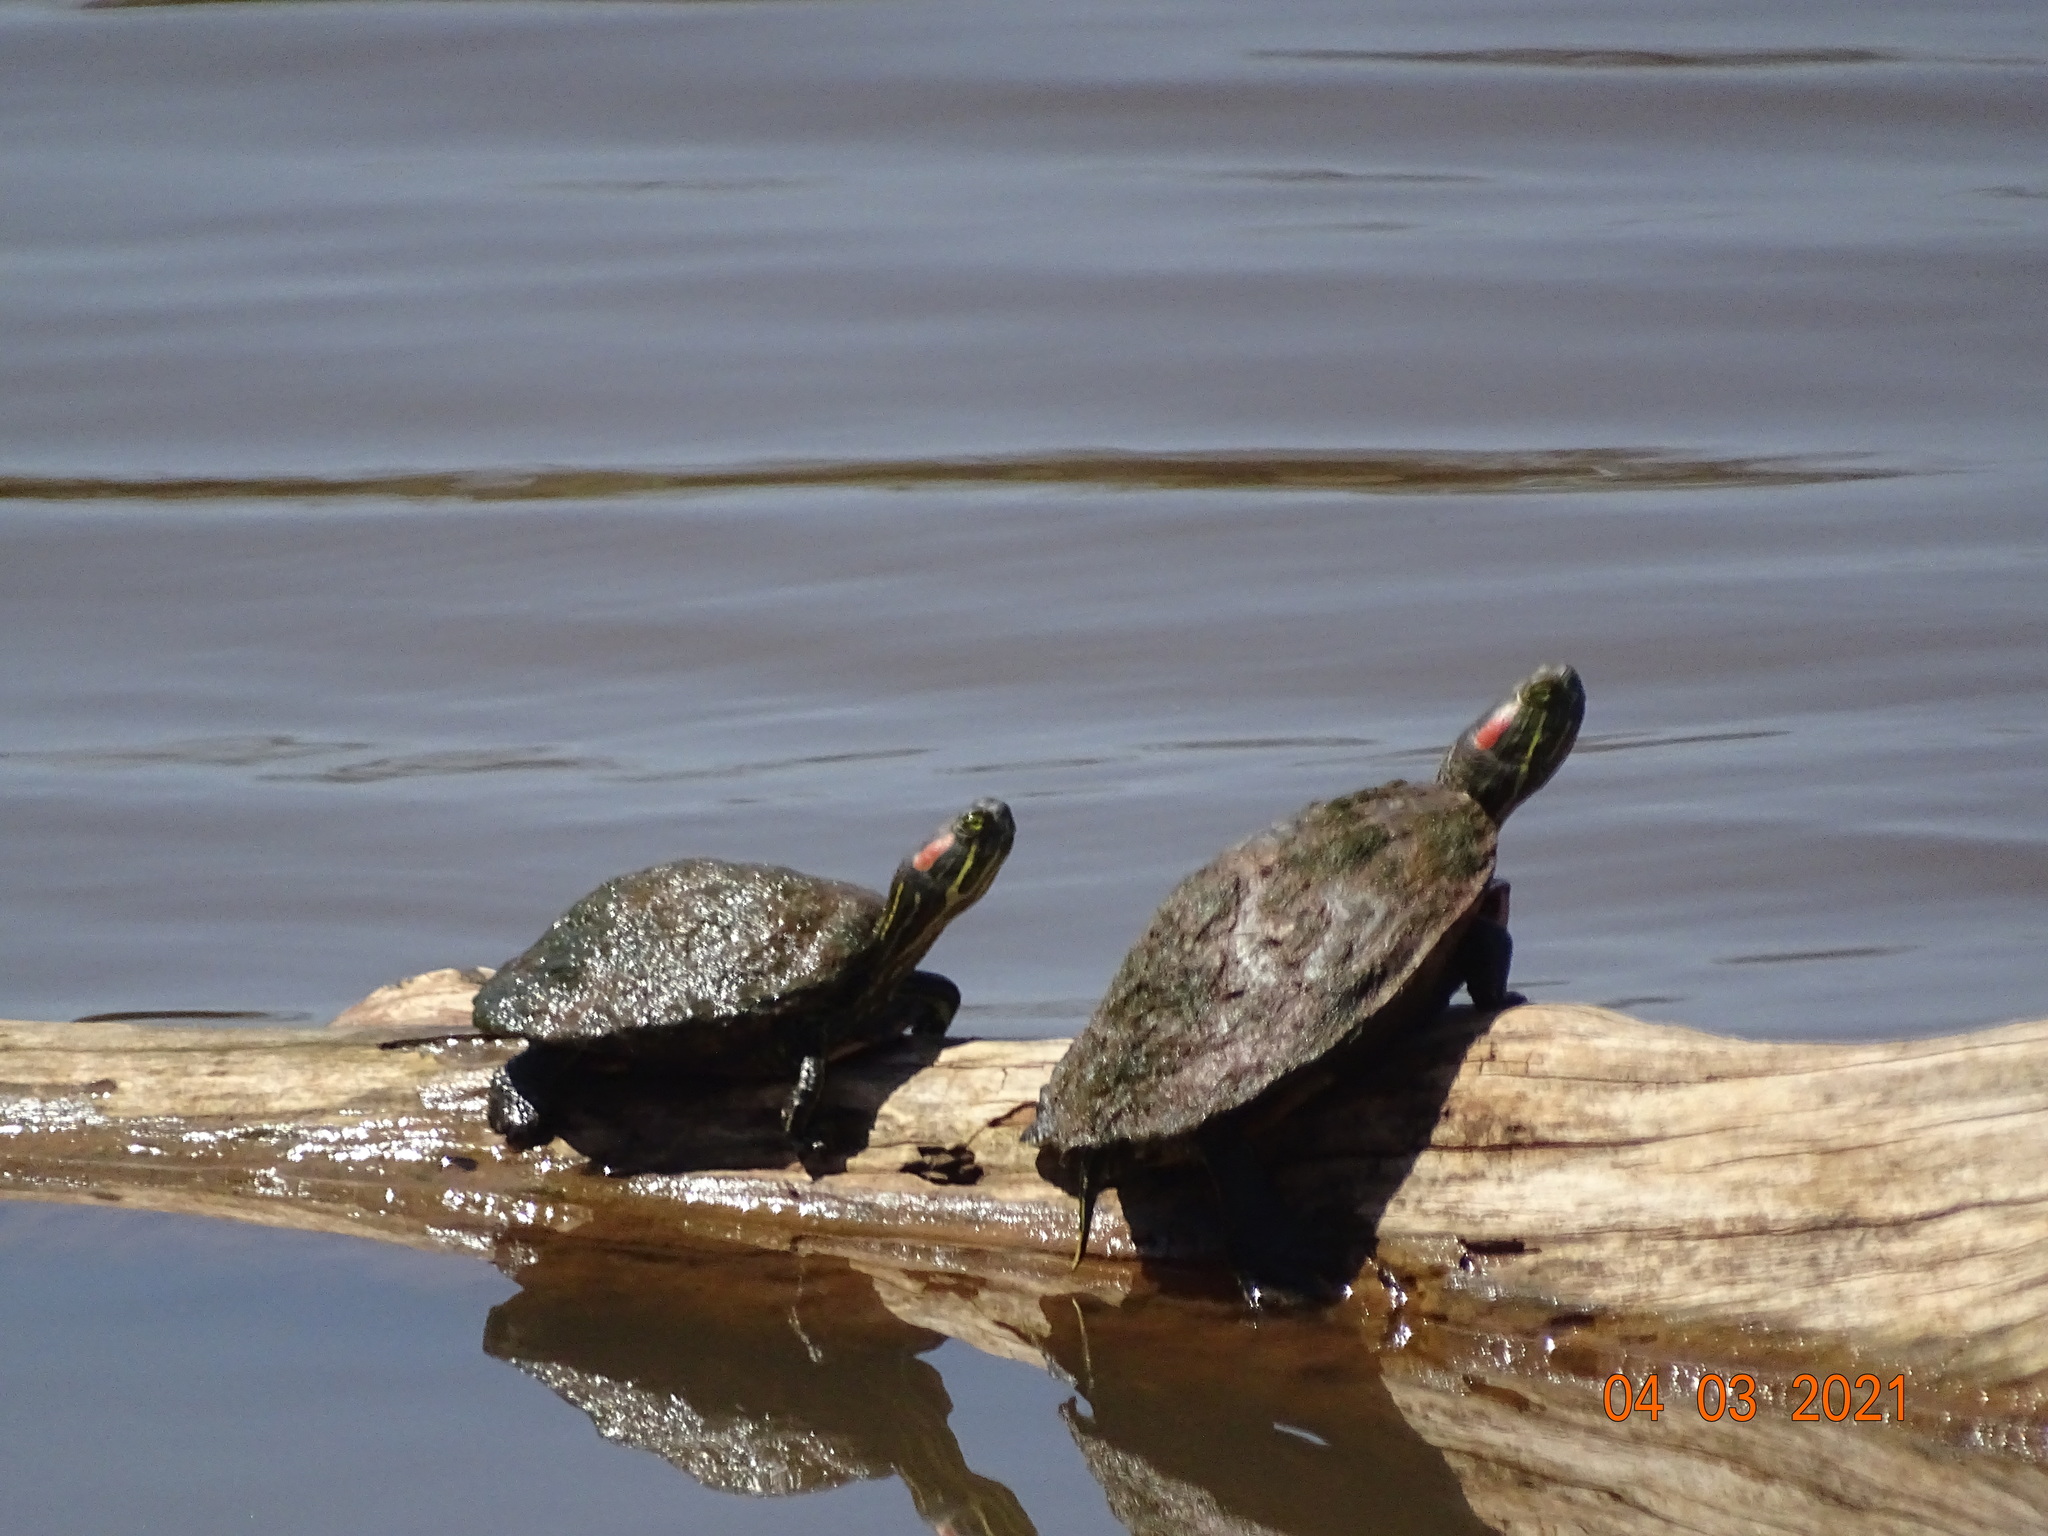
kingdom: Animalia
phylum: Chordata
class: Testudines
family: Emydidae
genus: Trachemys
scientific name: Trachemys scripta
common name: Slider
